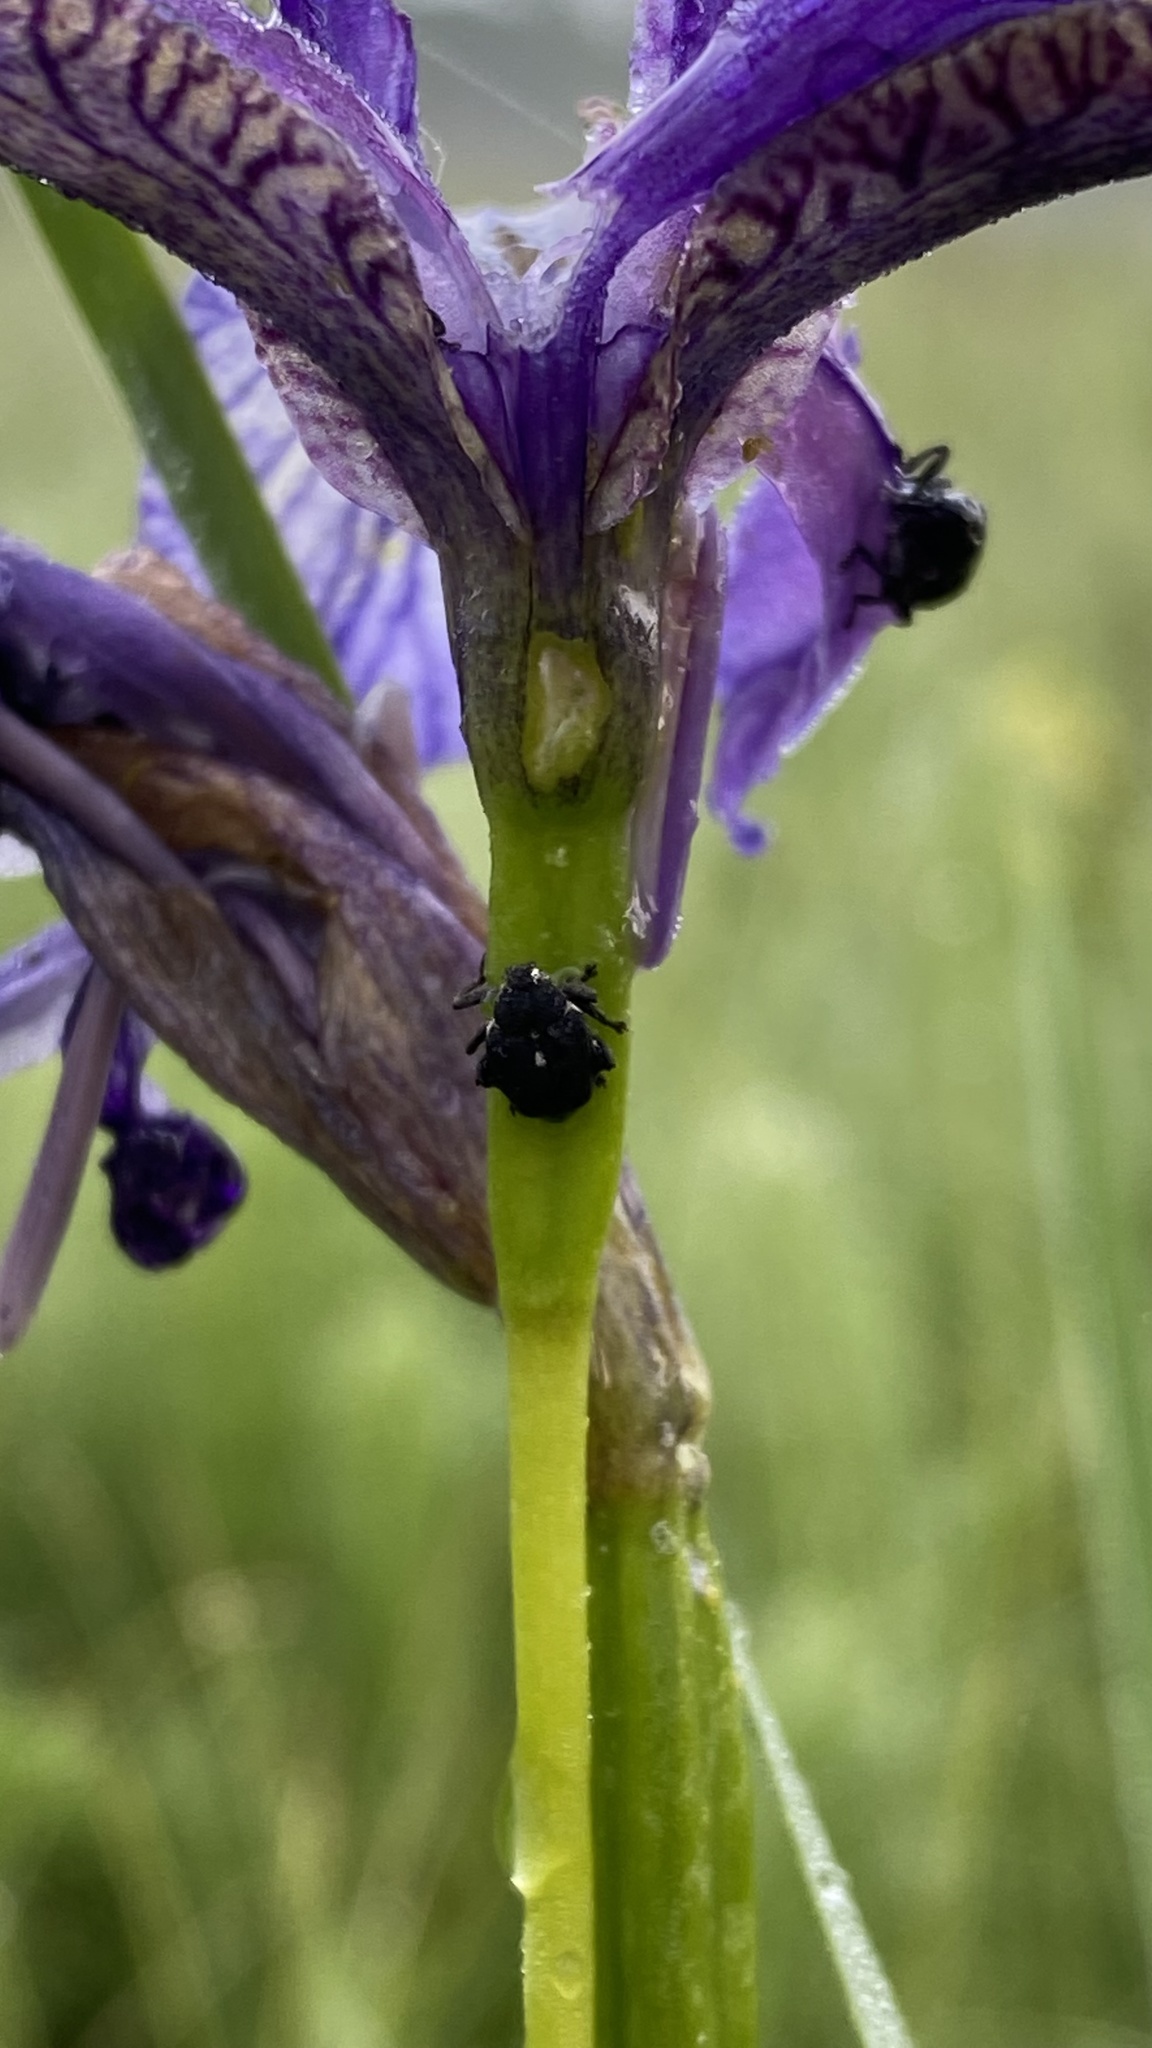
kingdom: Animalia
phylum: Arthropoda
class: Insecta
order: Coleoptera
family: Curculionidae
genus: Mononychus
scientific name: Mononychus punctumalbum
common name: Iris weevil
